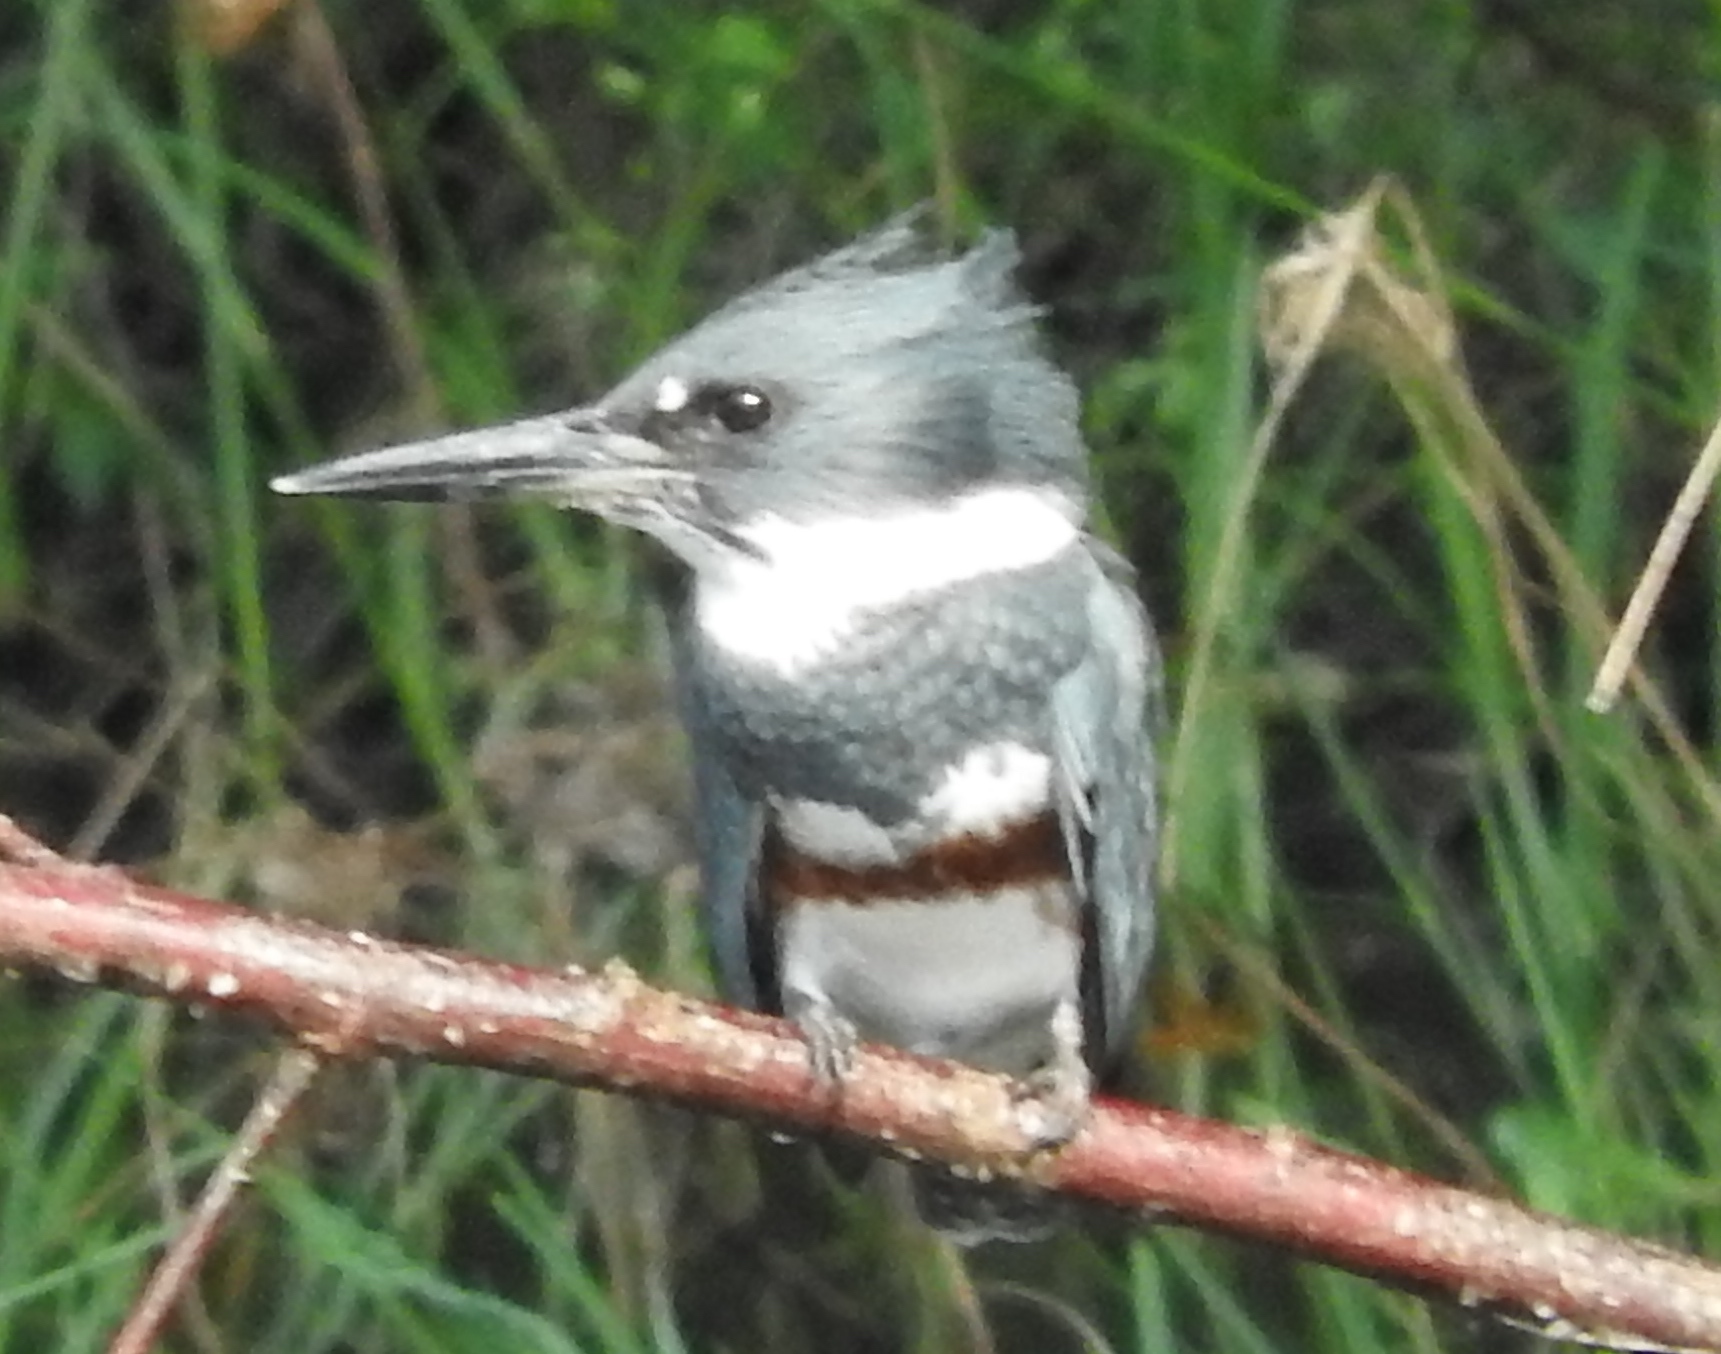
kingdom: Animalia
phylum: Chordata
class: Aves
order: Coraciiformes
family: Alcedinidae
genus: Megaceryle
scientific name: Megaceryle alcyon
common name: Belted kingfisher
